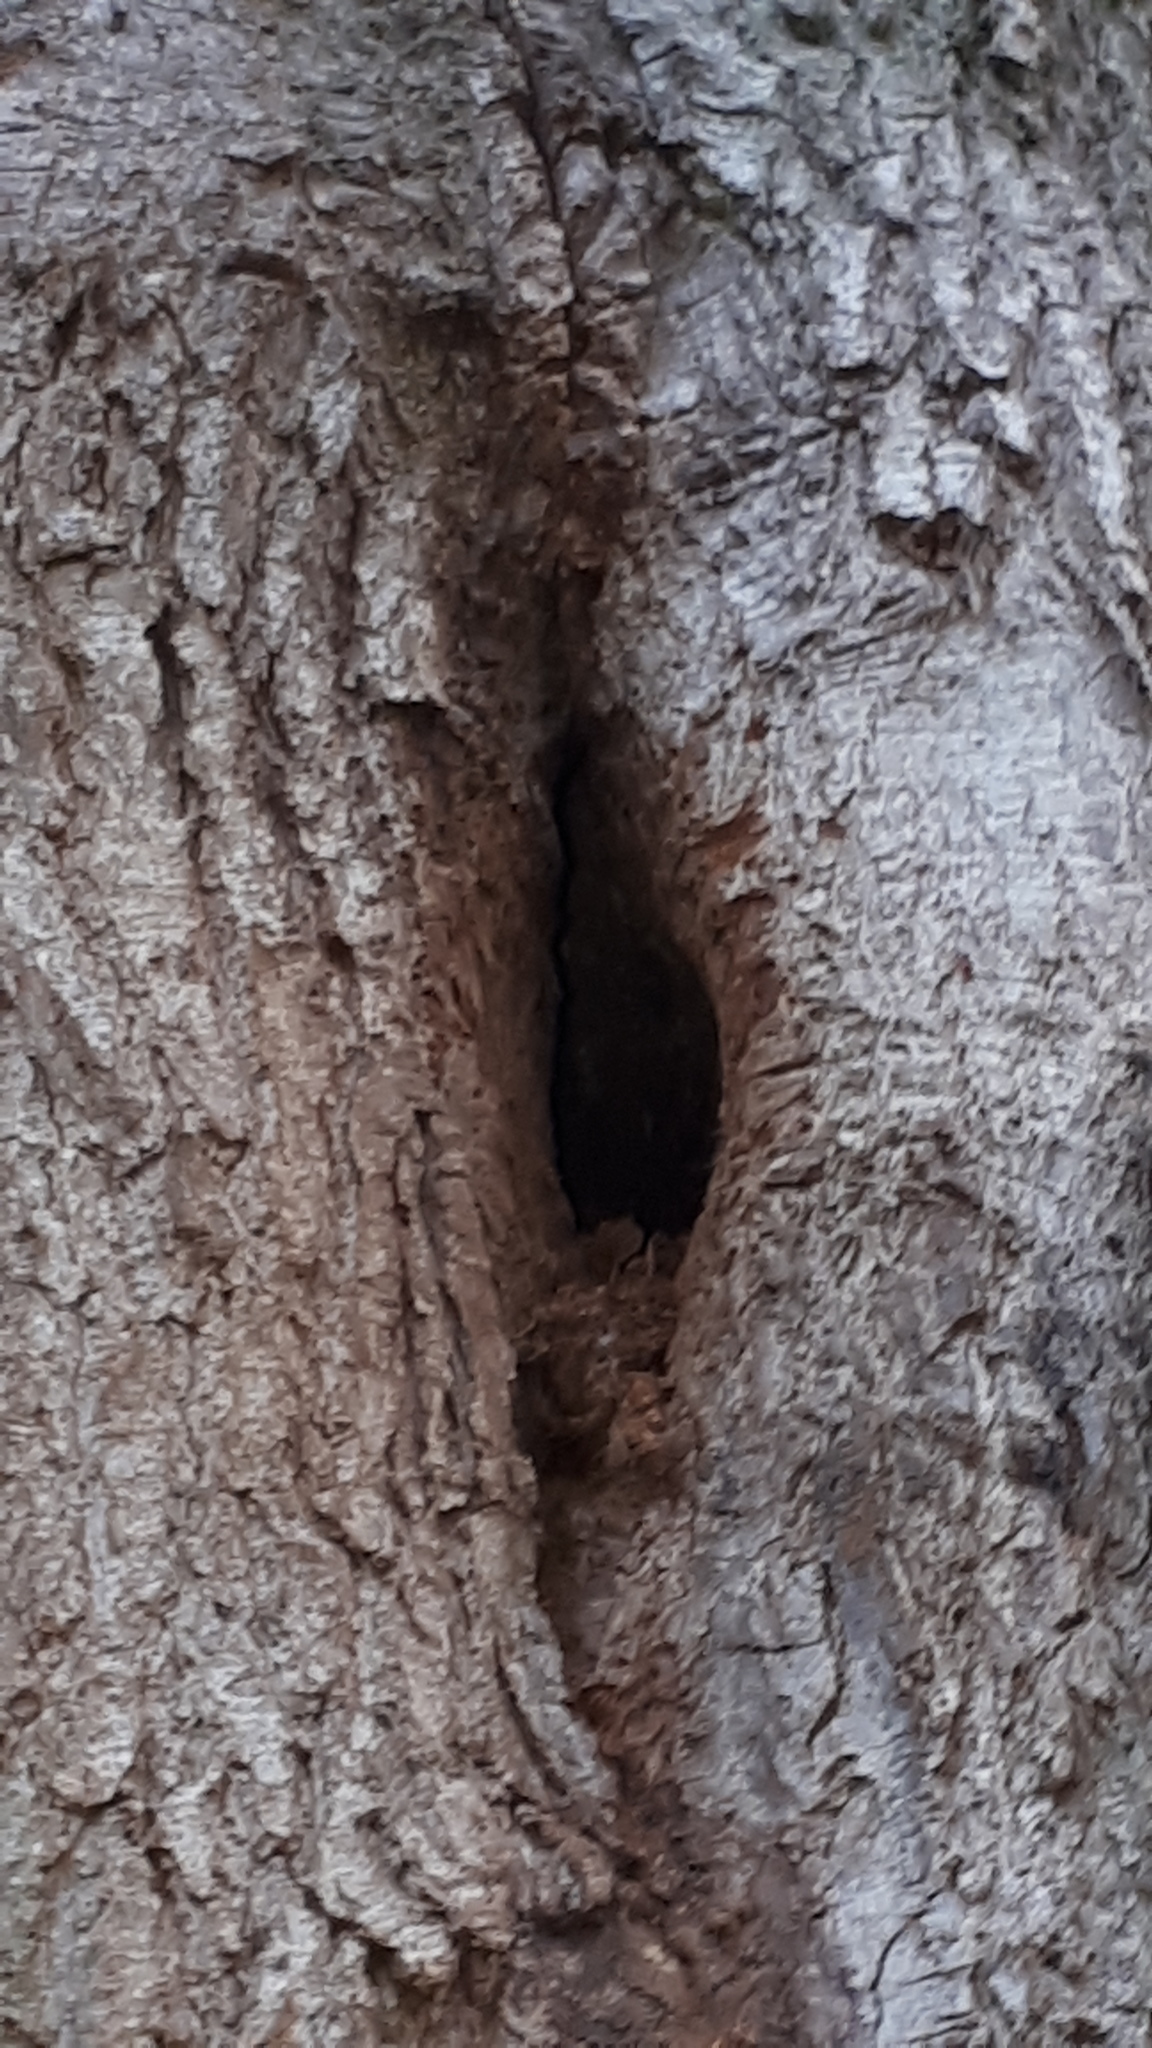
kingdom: Animalia
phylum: Arthropoda
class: Insecta
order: Hymenoptera
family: Apidae
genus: Apis
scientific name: Apis mellifera
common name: Honey bee
